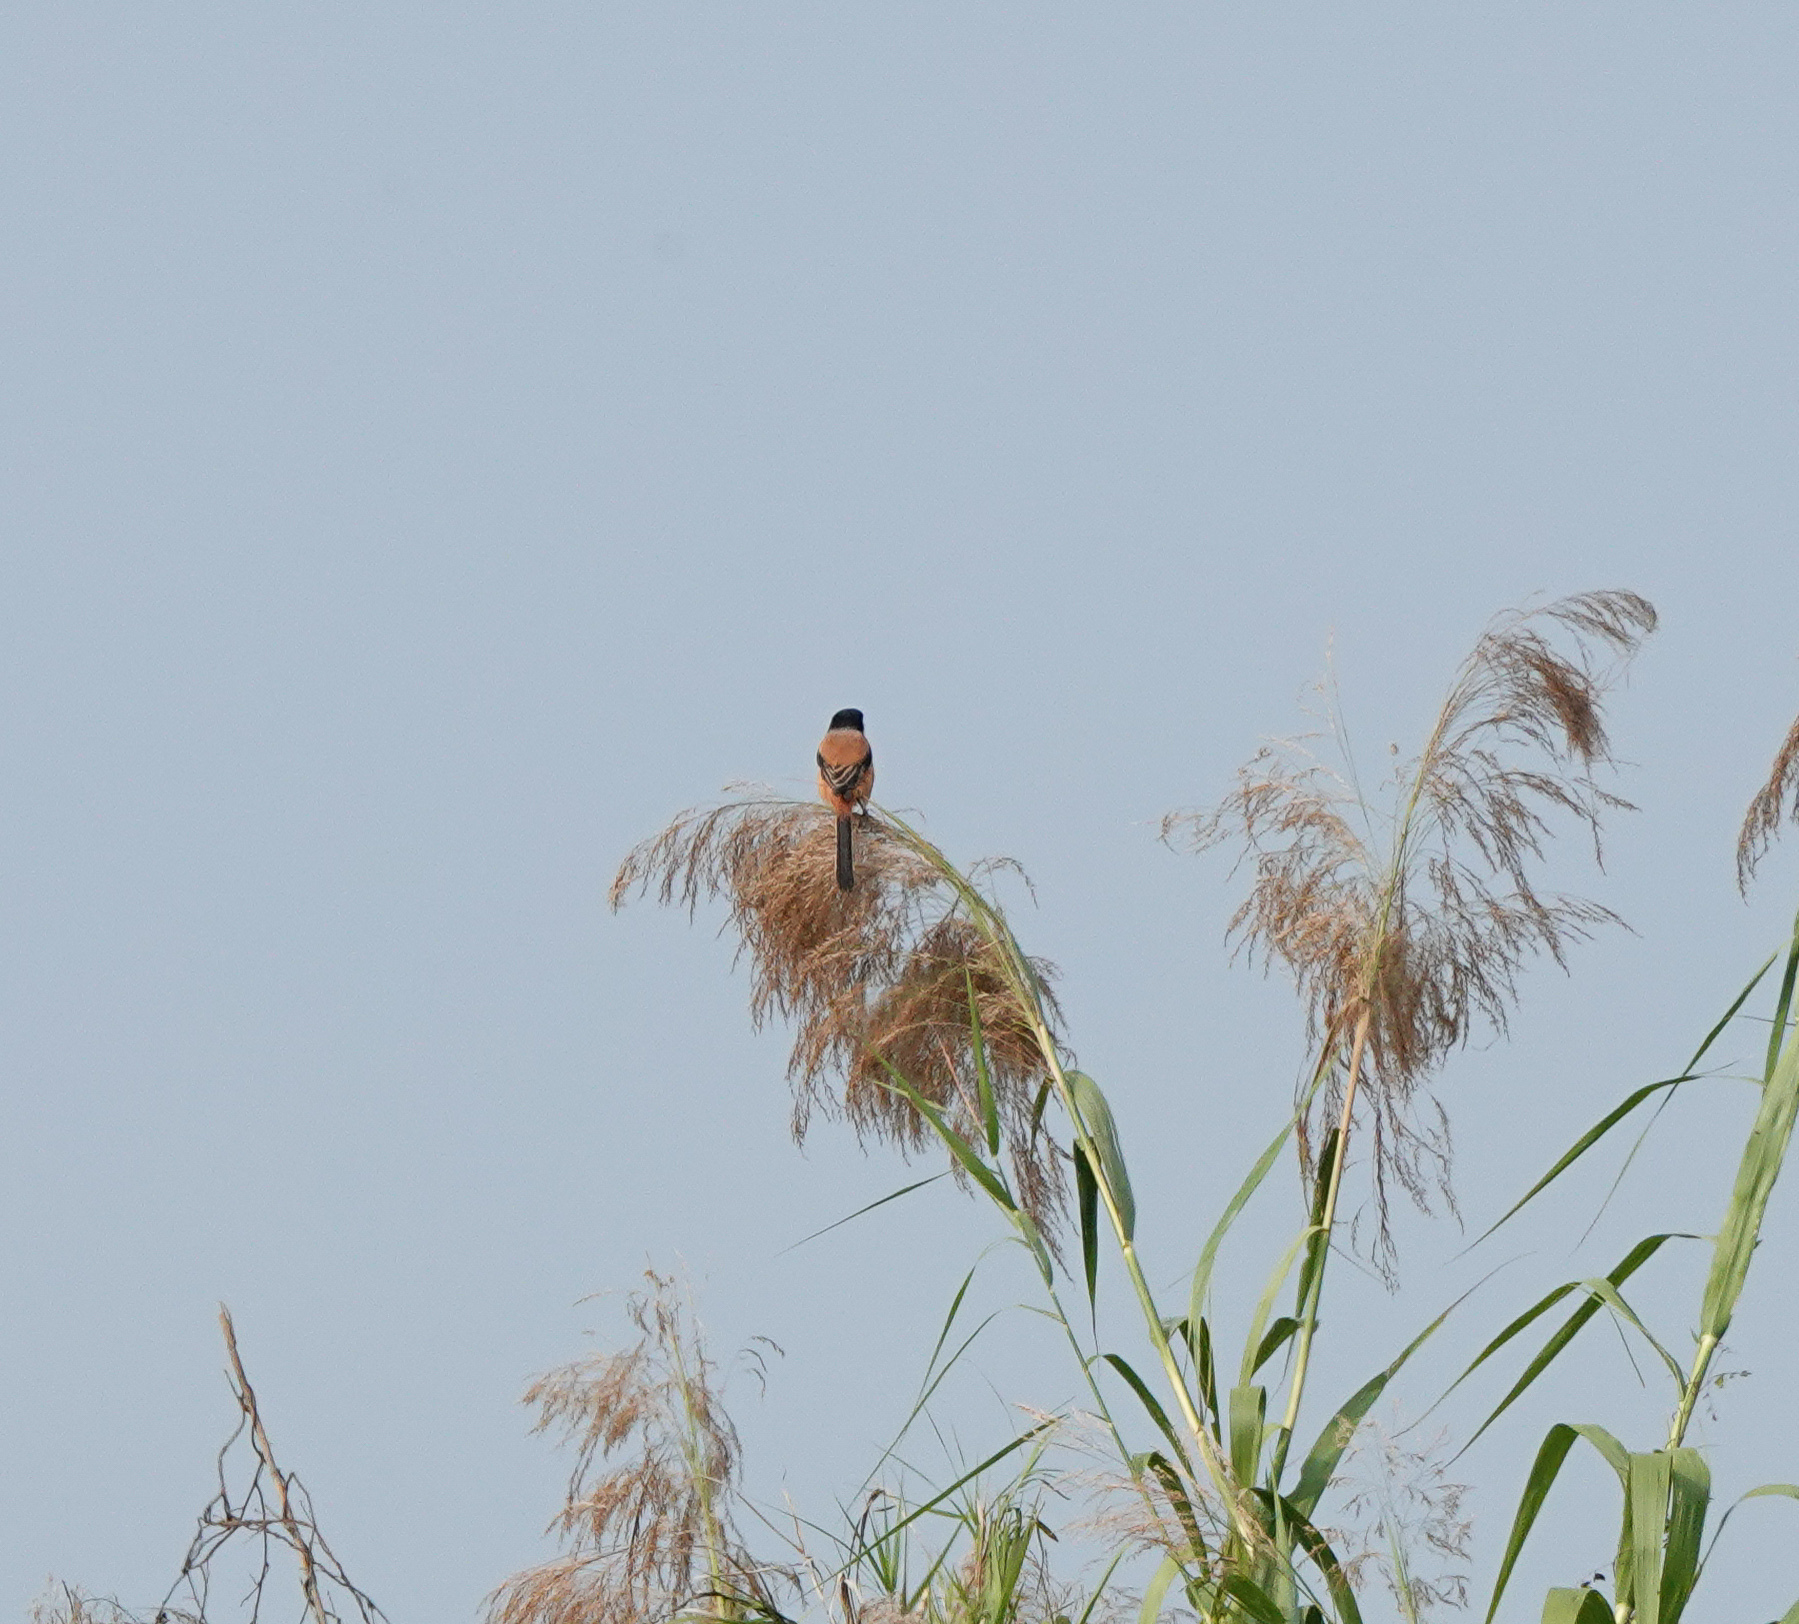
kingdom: Animalia
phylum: Chordata
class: Aves
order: Passeriformes
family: Laniidae
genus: Lanius
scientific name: Lanius schach
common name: Long-tailed shrike
